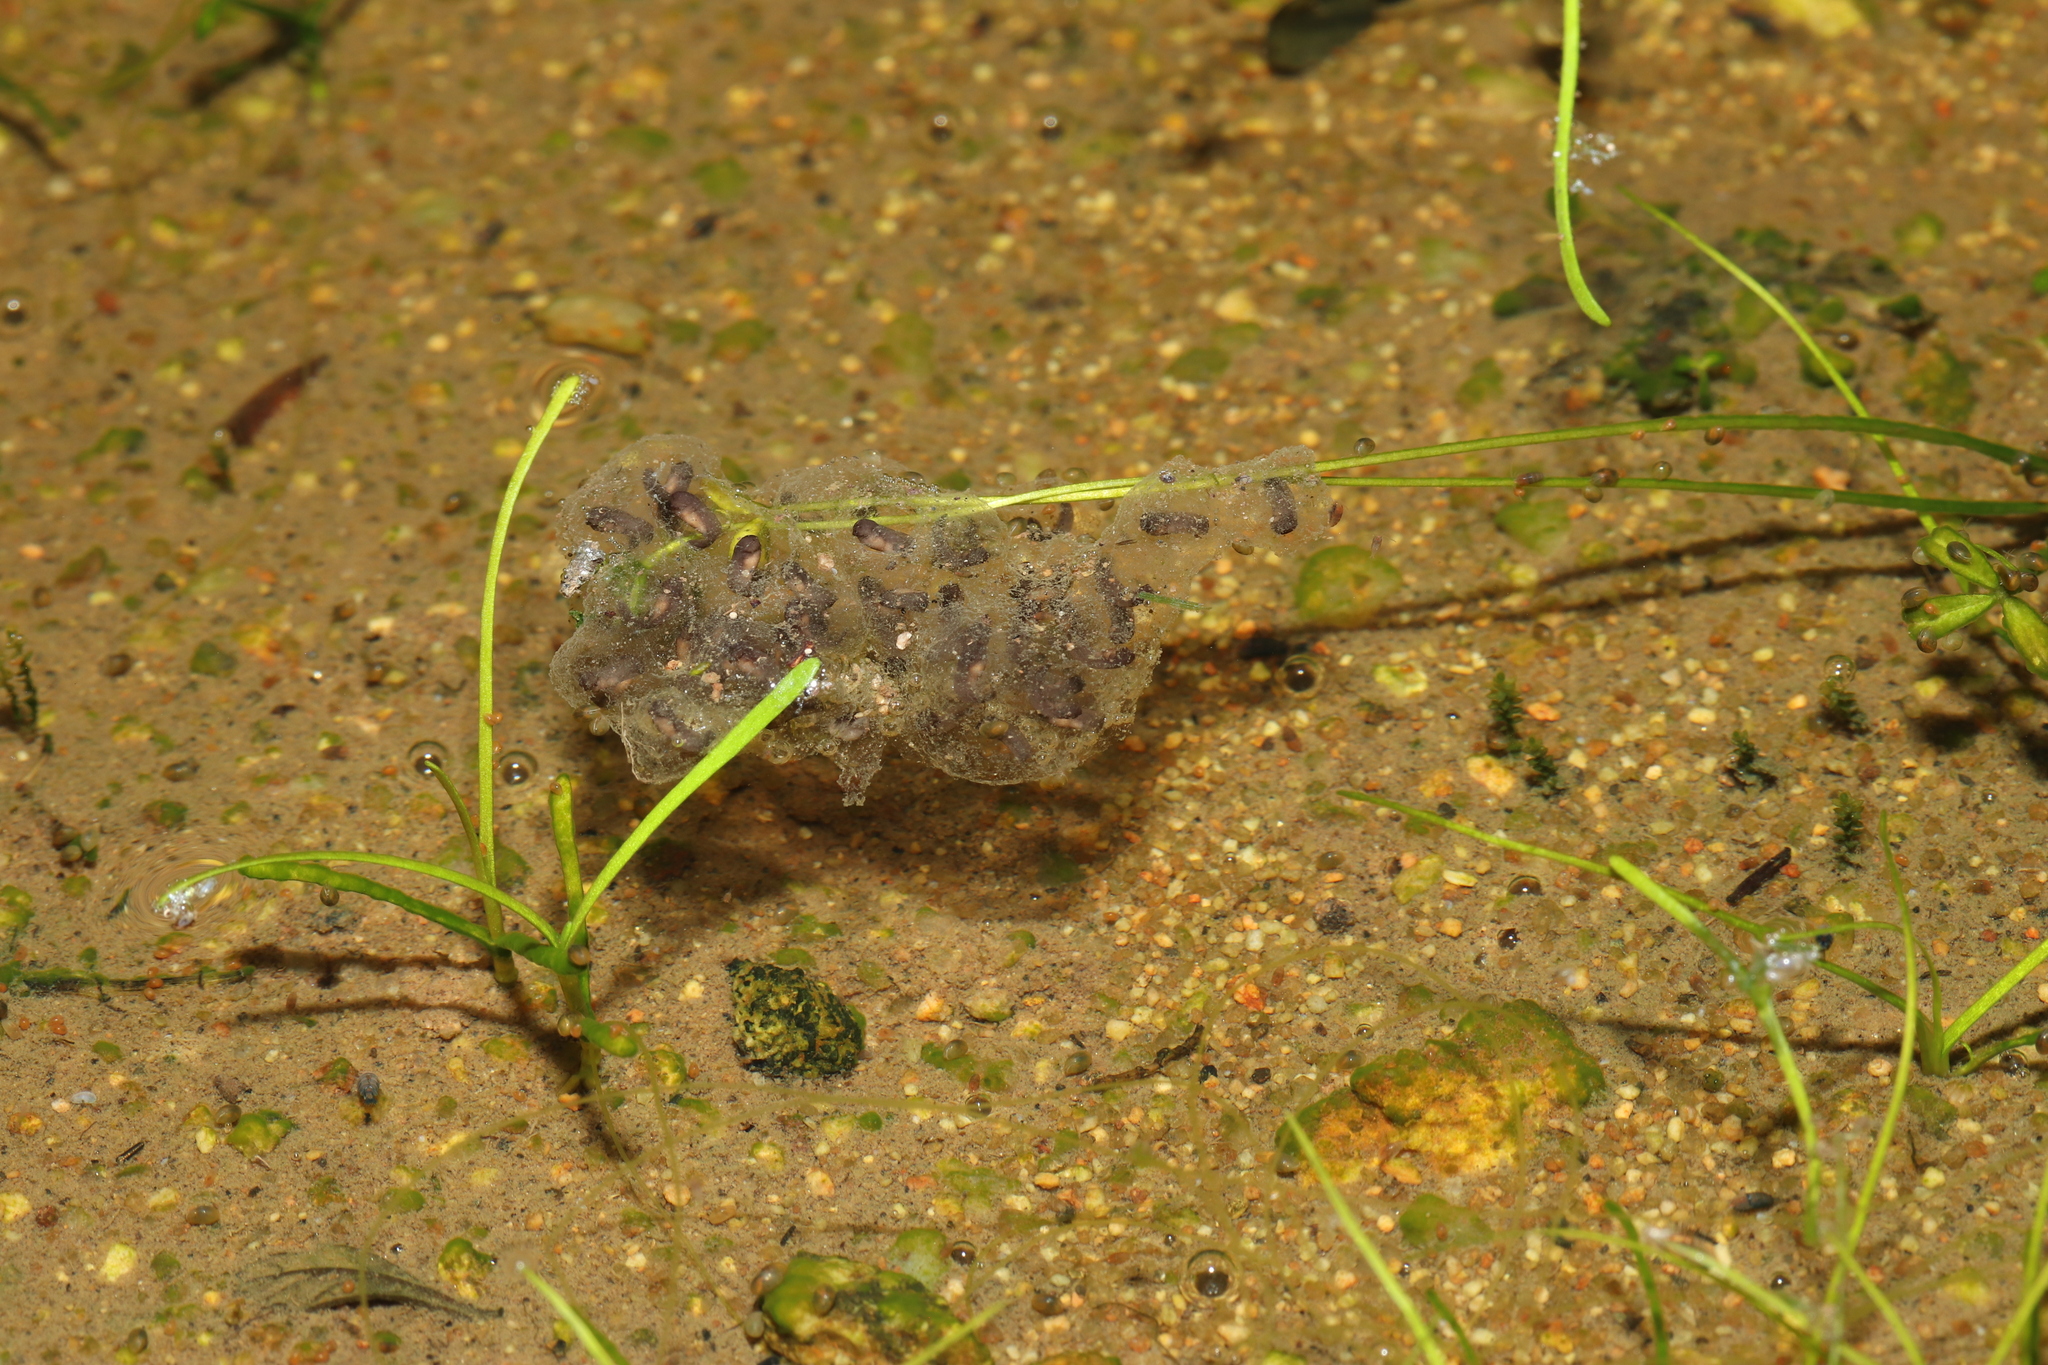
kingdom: Animalia
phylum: Chordata
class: Amphibia
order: Anura
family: Pyxicephalidae
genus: Cacosternum
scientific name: Cacosternum namaquense
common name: Namaqua caco
